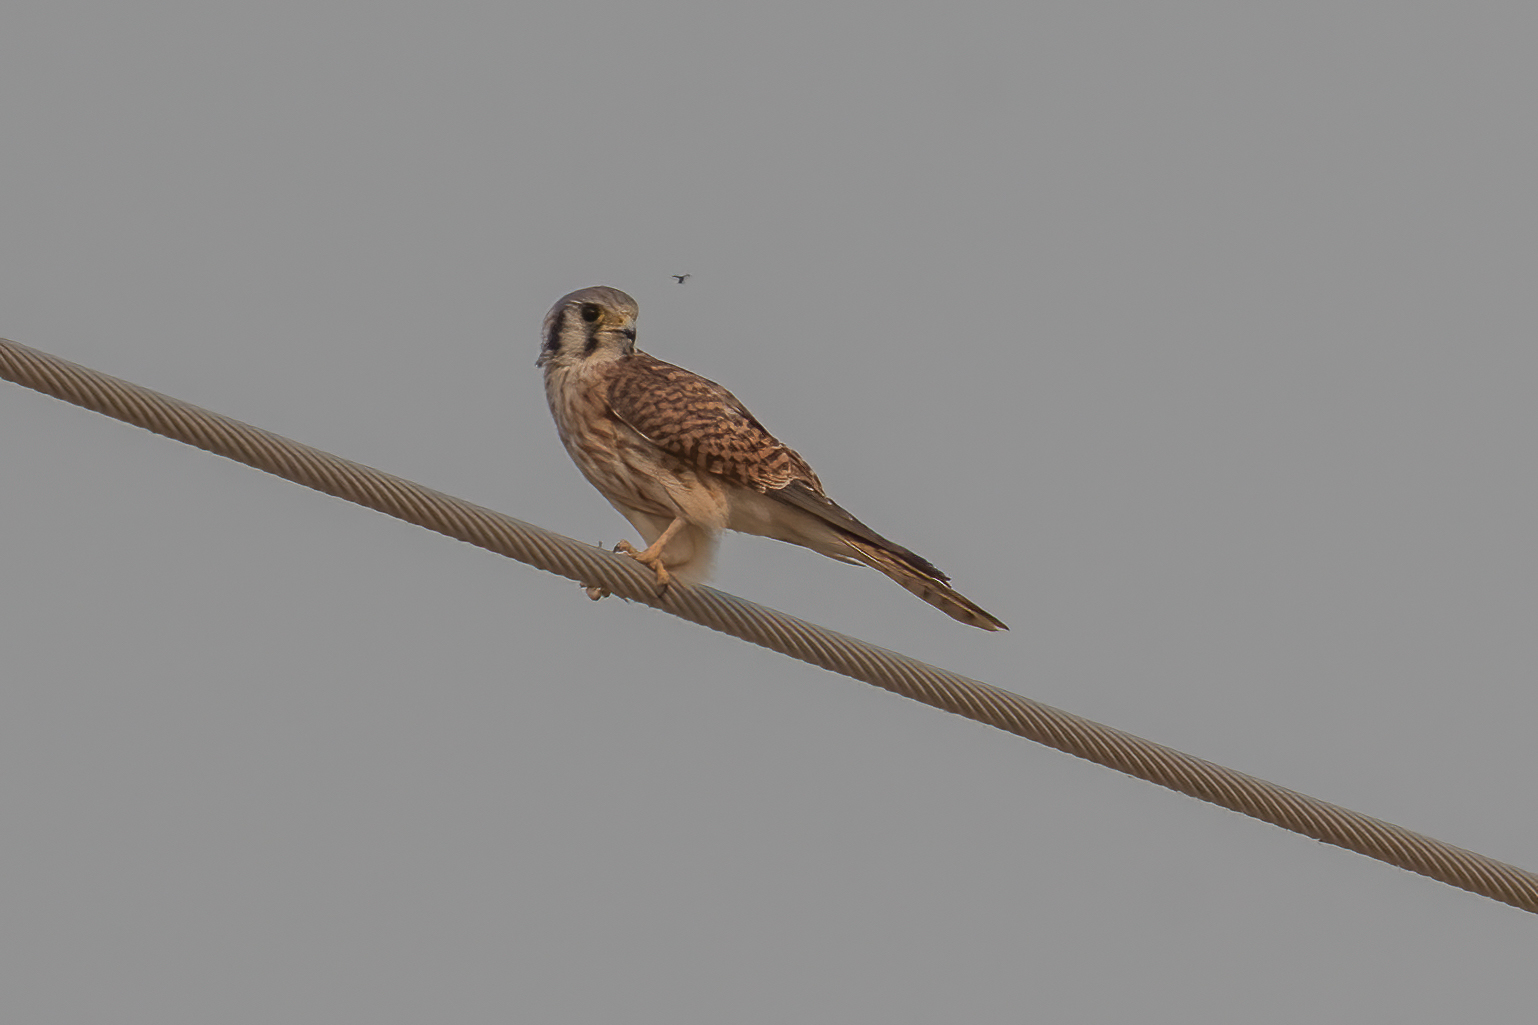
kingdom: Animalia
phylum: Chordata
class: Aves
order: Falconiformes
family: Falconidae
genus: Falco
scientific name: Falco sparverius
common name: American kestrel
